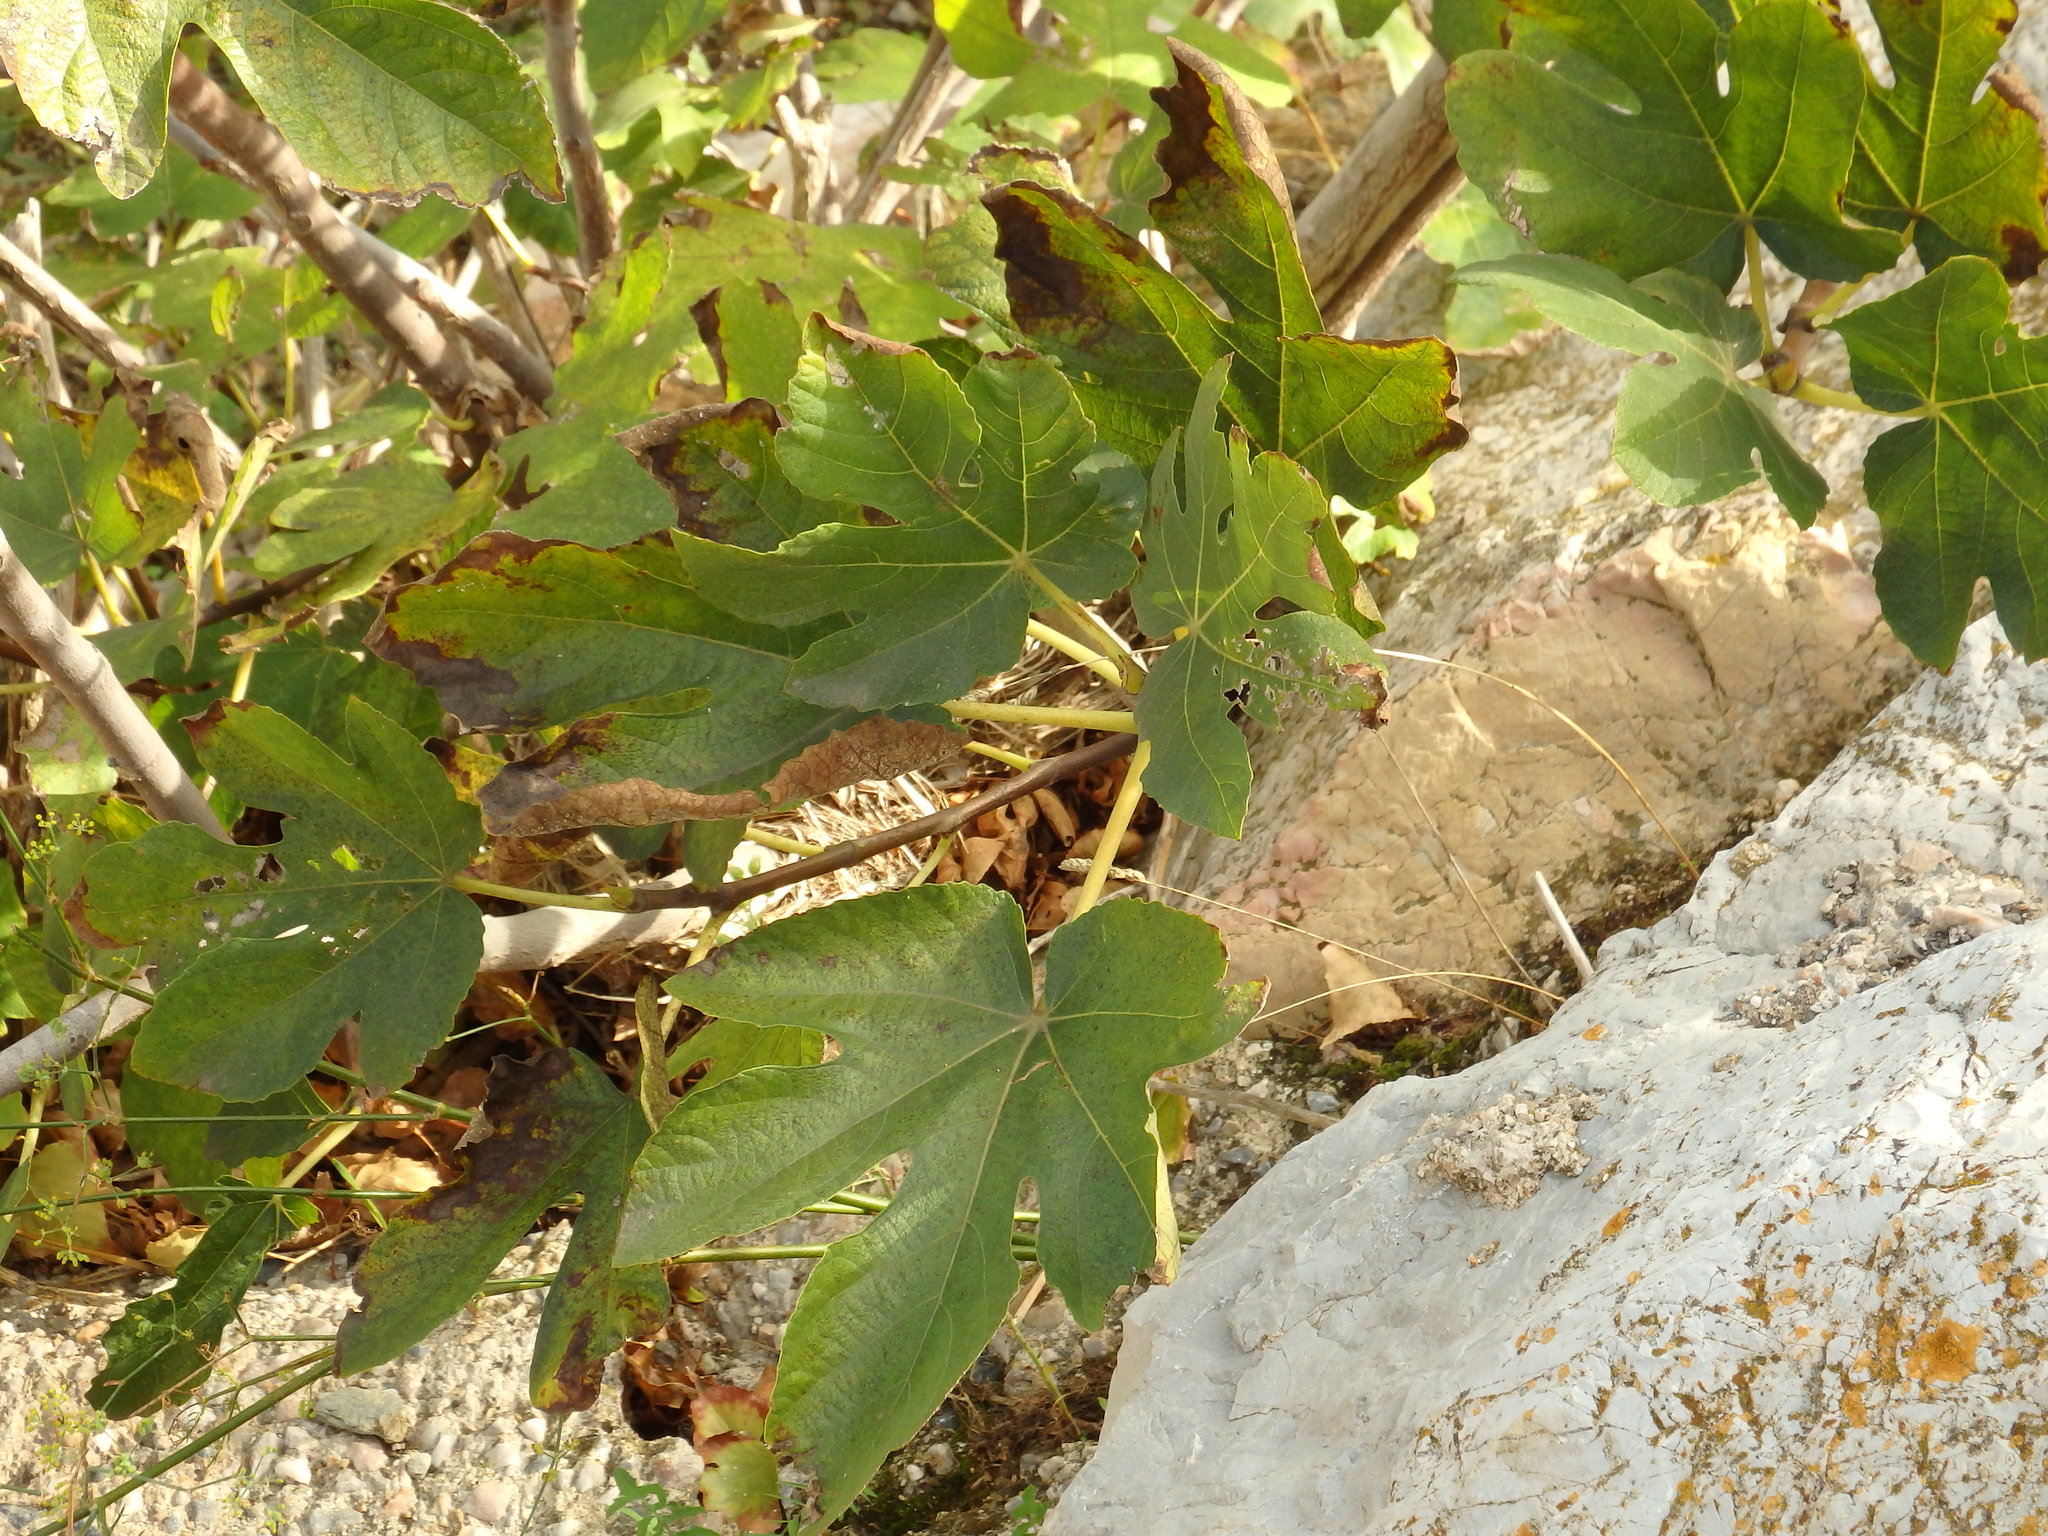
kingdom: Plantae
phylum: Tracheophyta
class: Magnoliopsida
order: Rosales
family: Moraceae
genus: Ficus
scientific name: Ficus carica
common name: Fig
